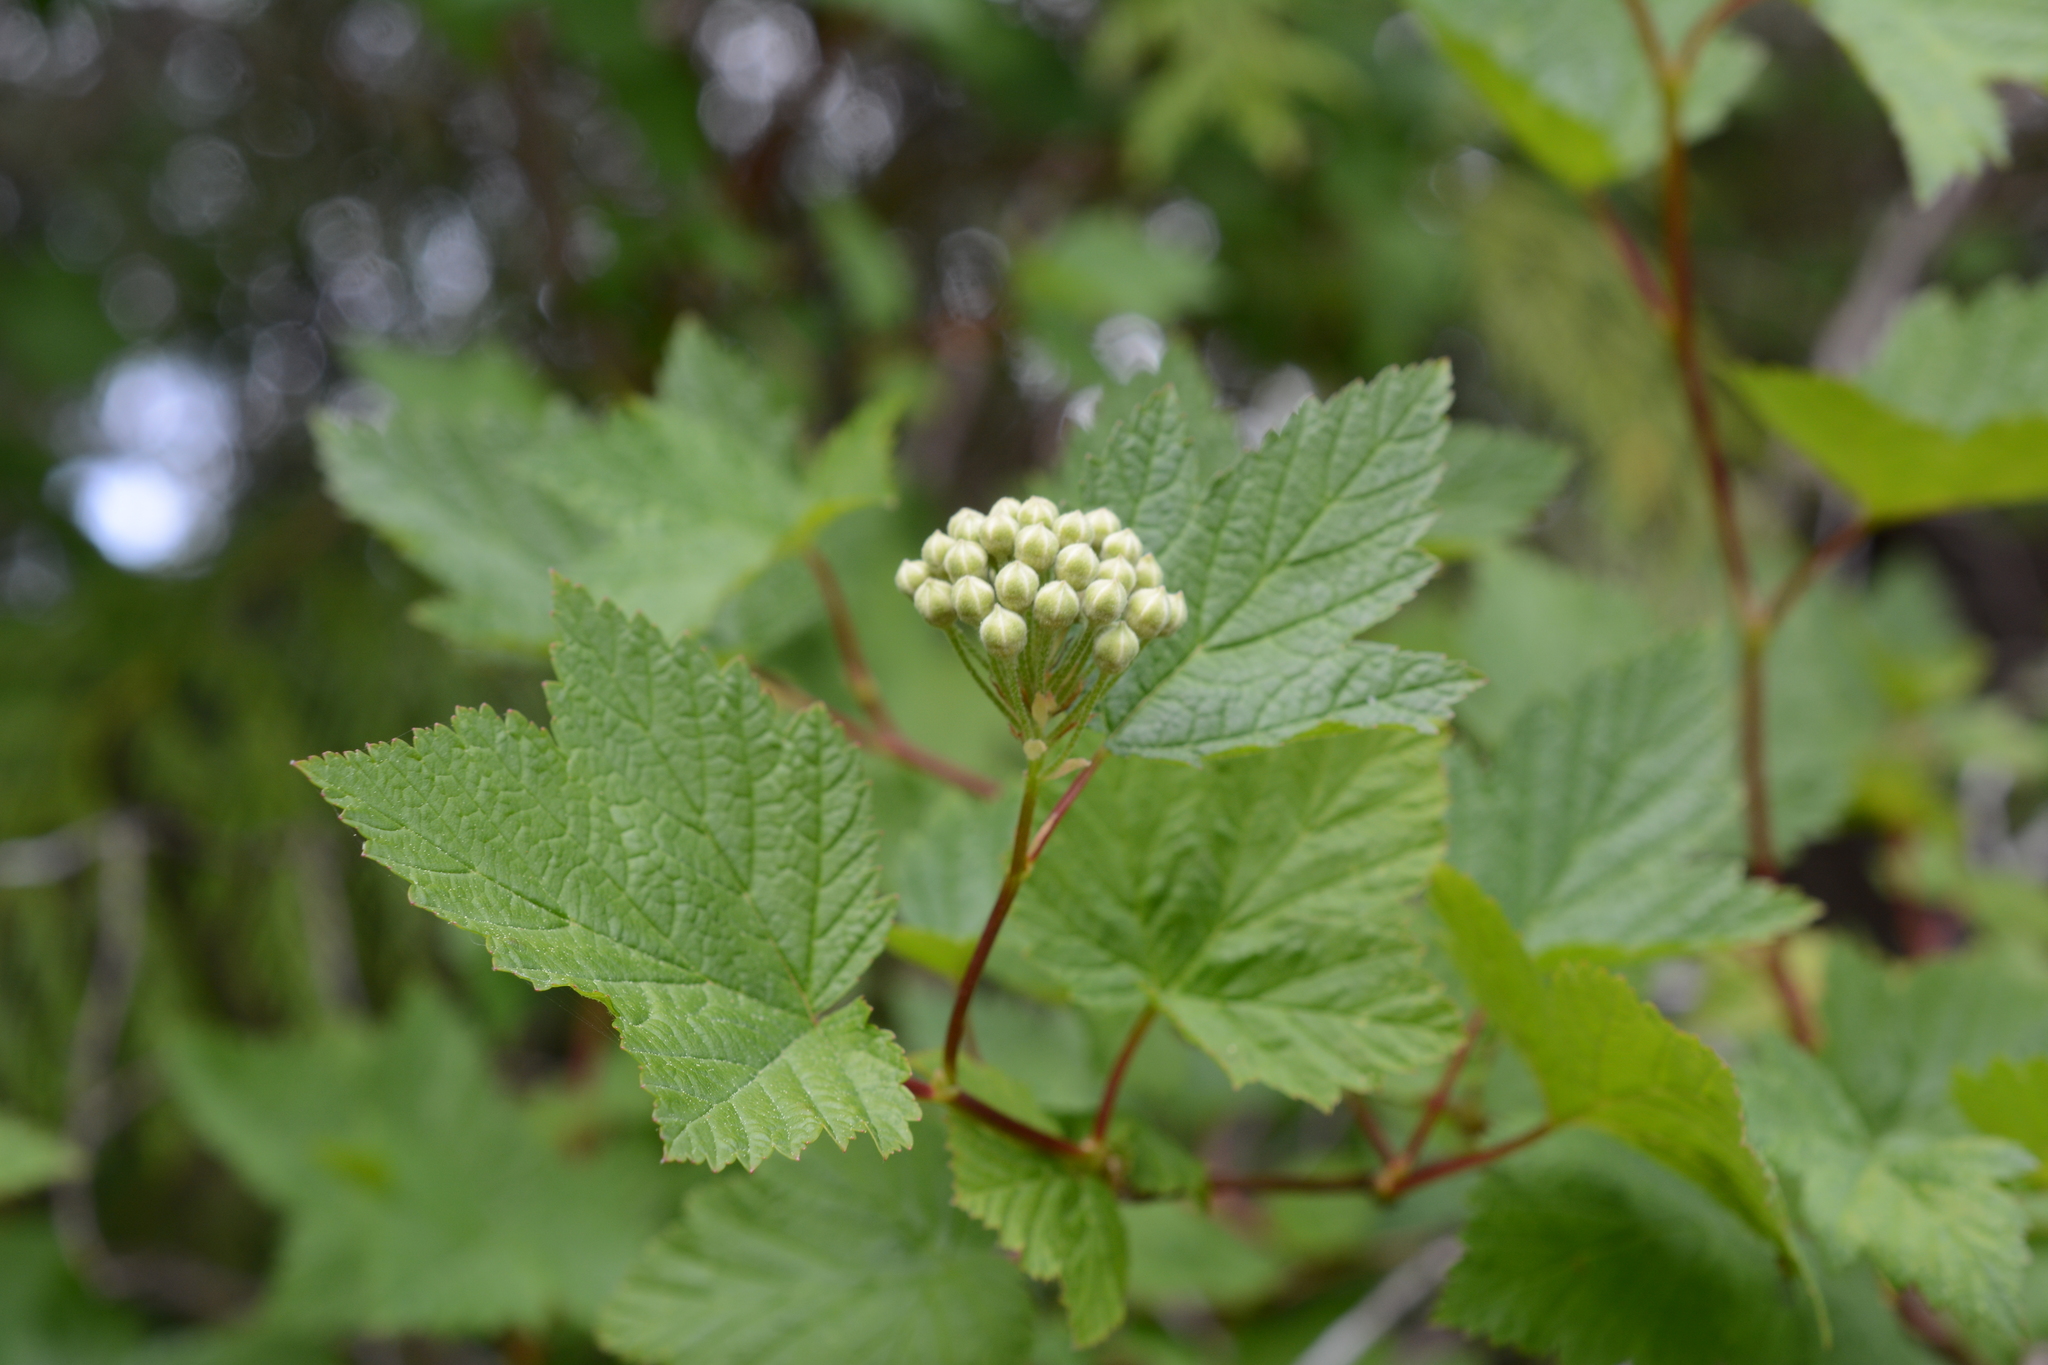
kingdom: Plantae
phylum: Tracheophyta
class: Magnoliopsida
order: Rosales
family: Rosaceae
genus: Physocarpus
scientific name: Physocarpus capitatus
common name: Pacific ninebark
